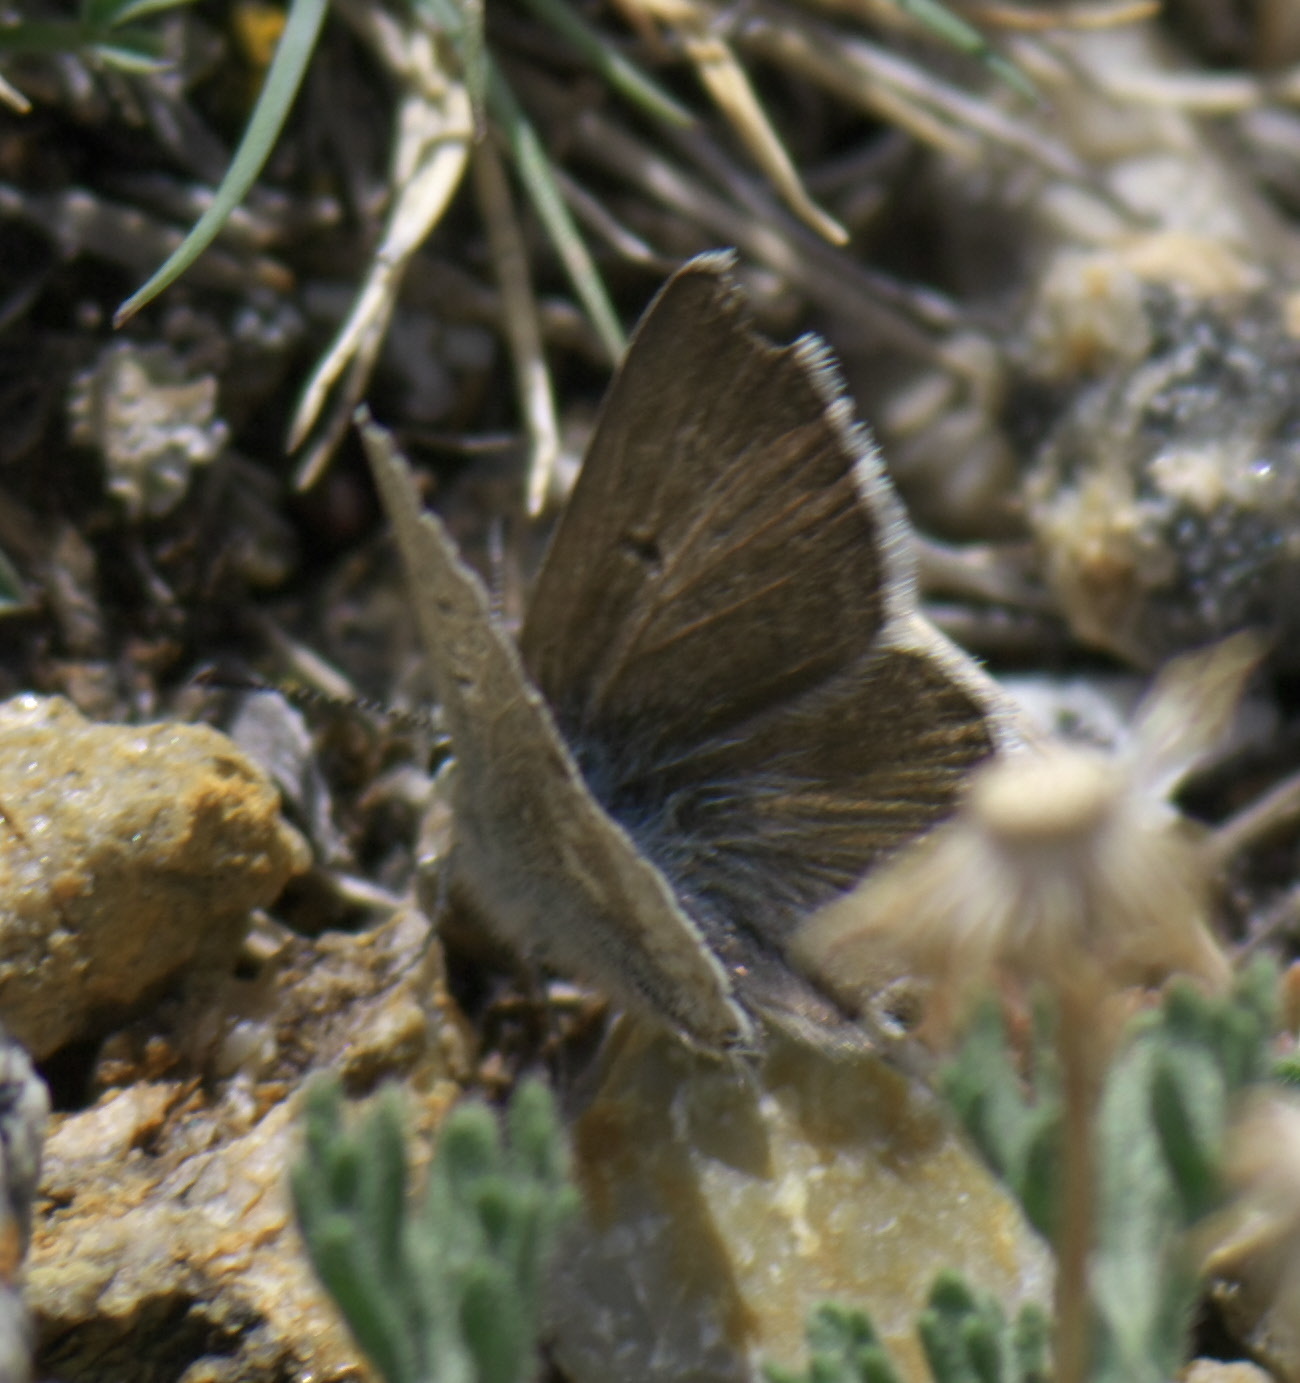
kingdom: Animalia
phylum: Arthropoda
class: Insecta
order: Lepidoptera
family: Lycaenidae
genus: Agriades
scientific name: Agriades glandon
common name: Glandon blue
